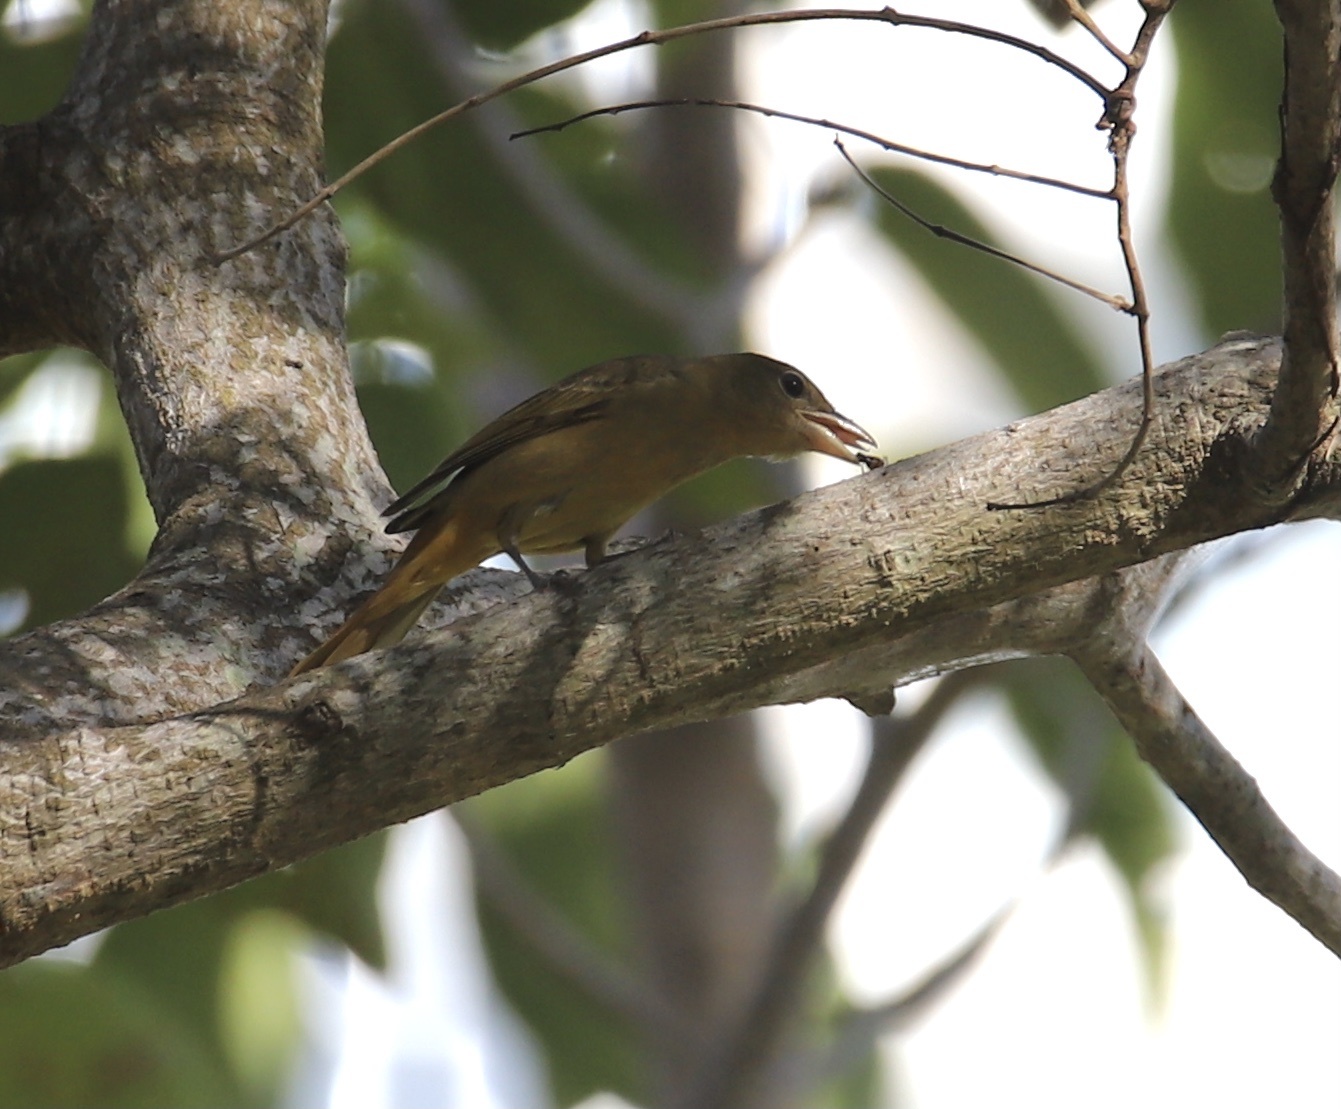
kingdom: Animalia
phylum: Chordata
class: Aves
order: Passeriformes
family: Cardinalidae
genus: Piranga
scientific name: Piranga rubra
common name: Summer tanager
